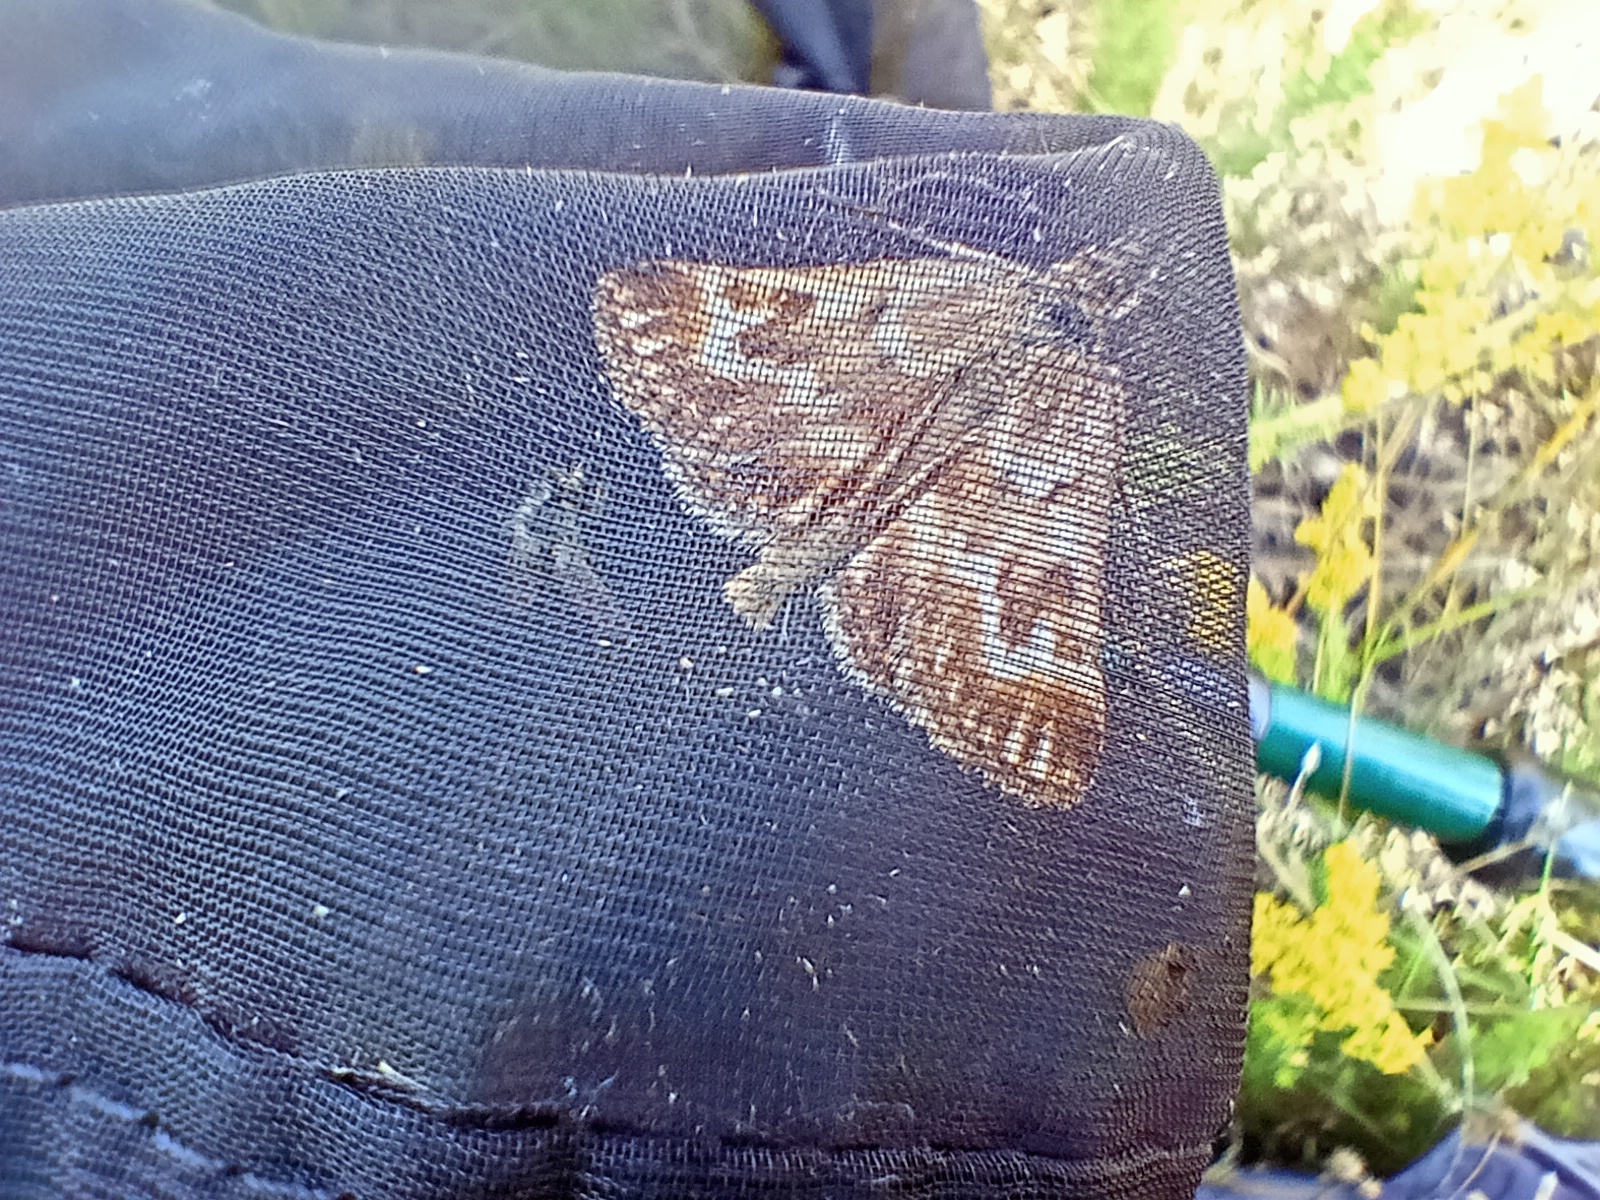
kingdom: Animalia
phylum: Arthropoda
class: Insecta
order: Lepidoptera
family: Pyralidae
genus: Synaphe
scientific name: Synaphe moldavica
